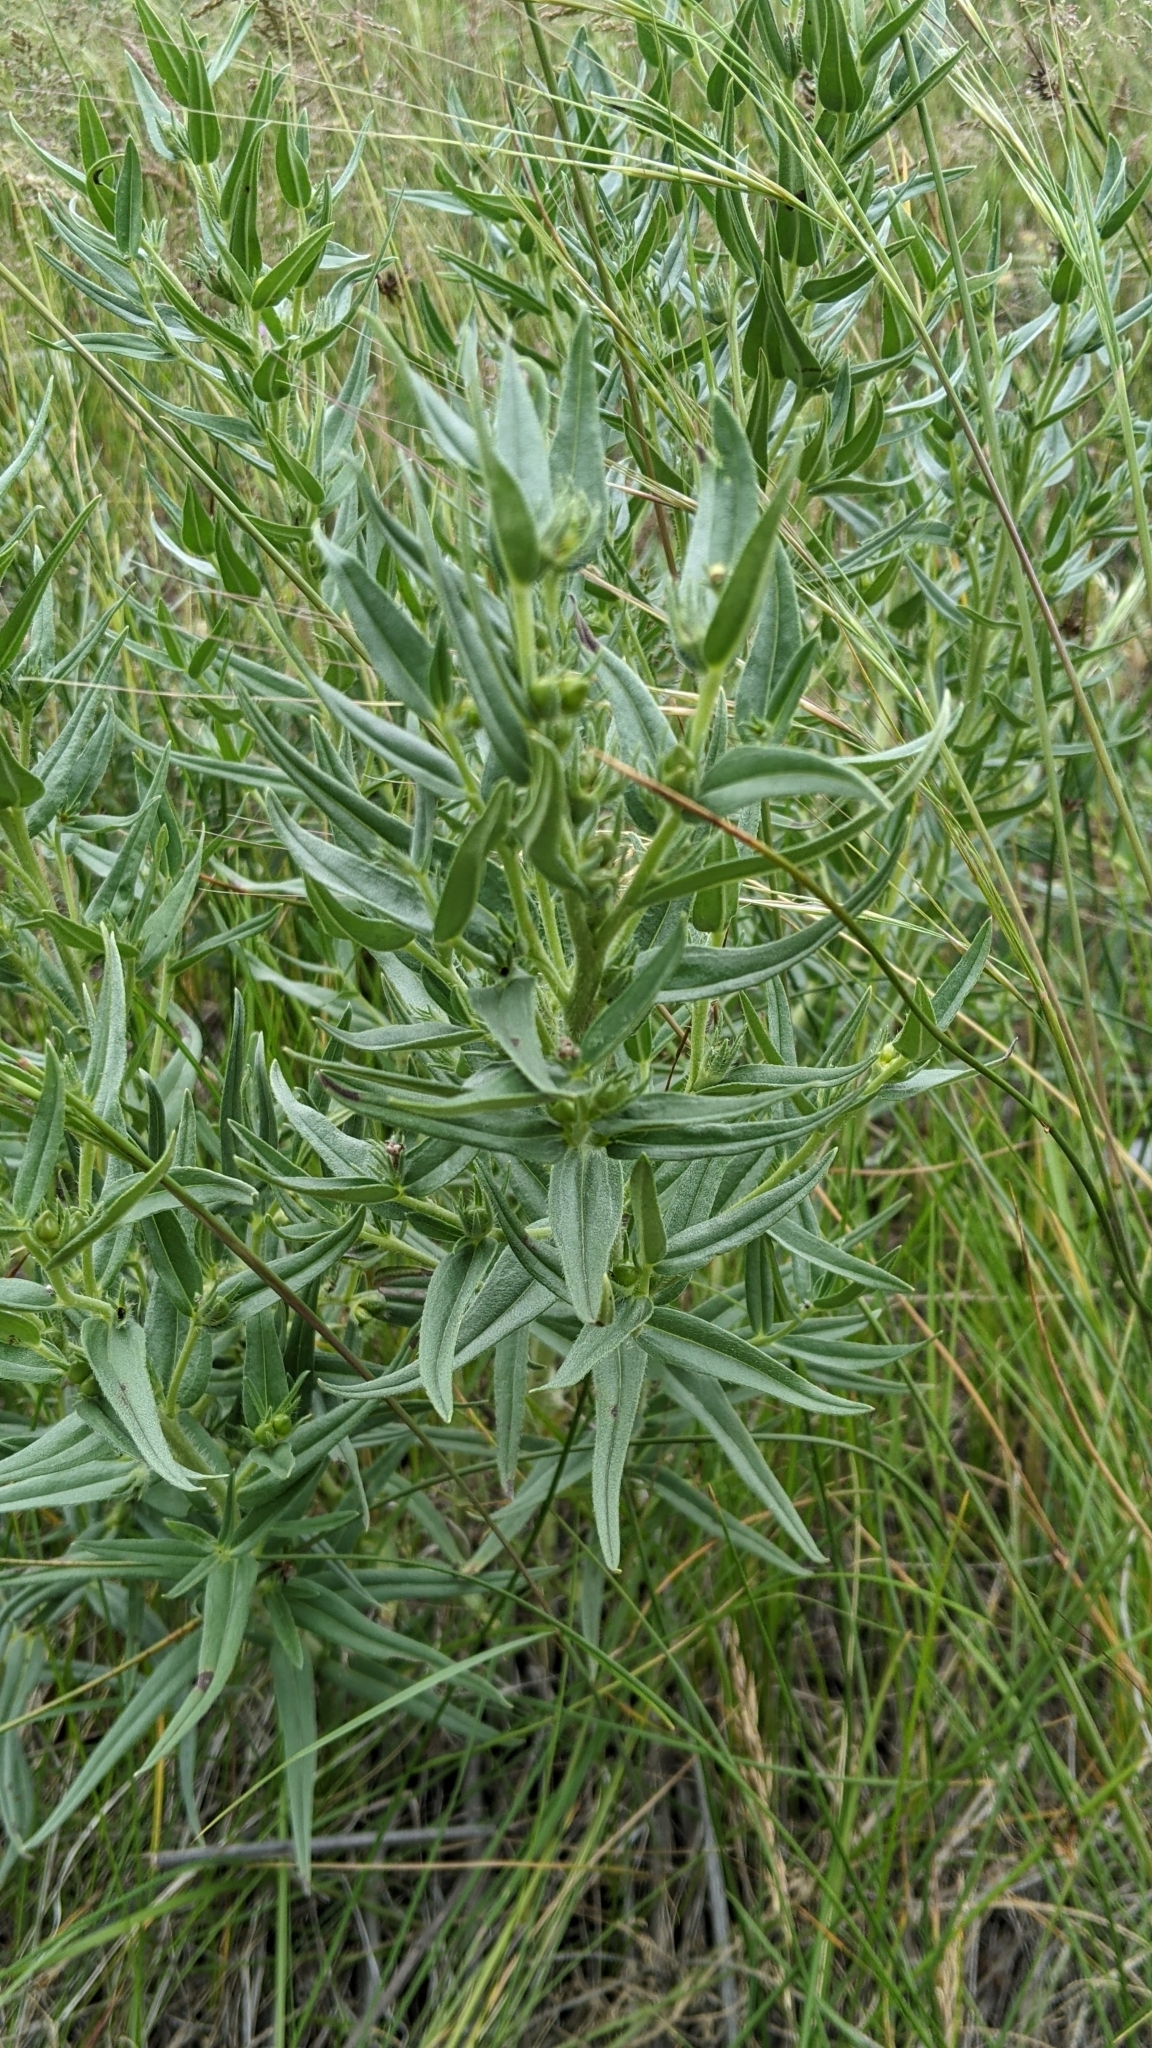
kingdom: Plantae
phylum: Tracheophyta
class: Magnoliopsida
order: Boraginales
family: Boraginaceae
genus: Lithospermum
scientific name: Lithospermum ruderale
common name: Western gromwell
